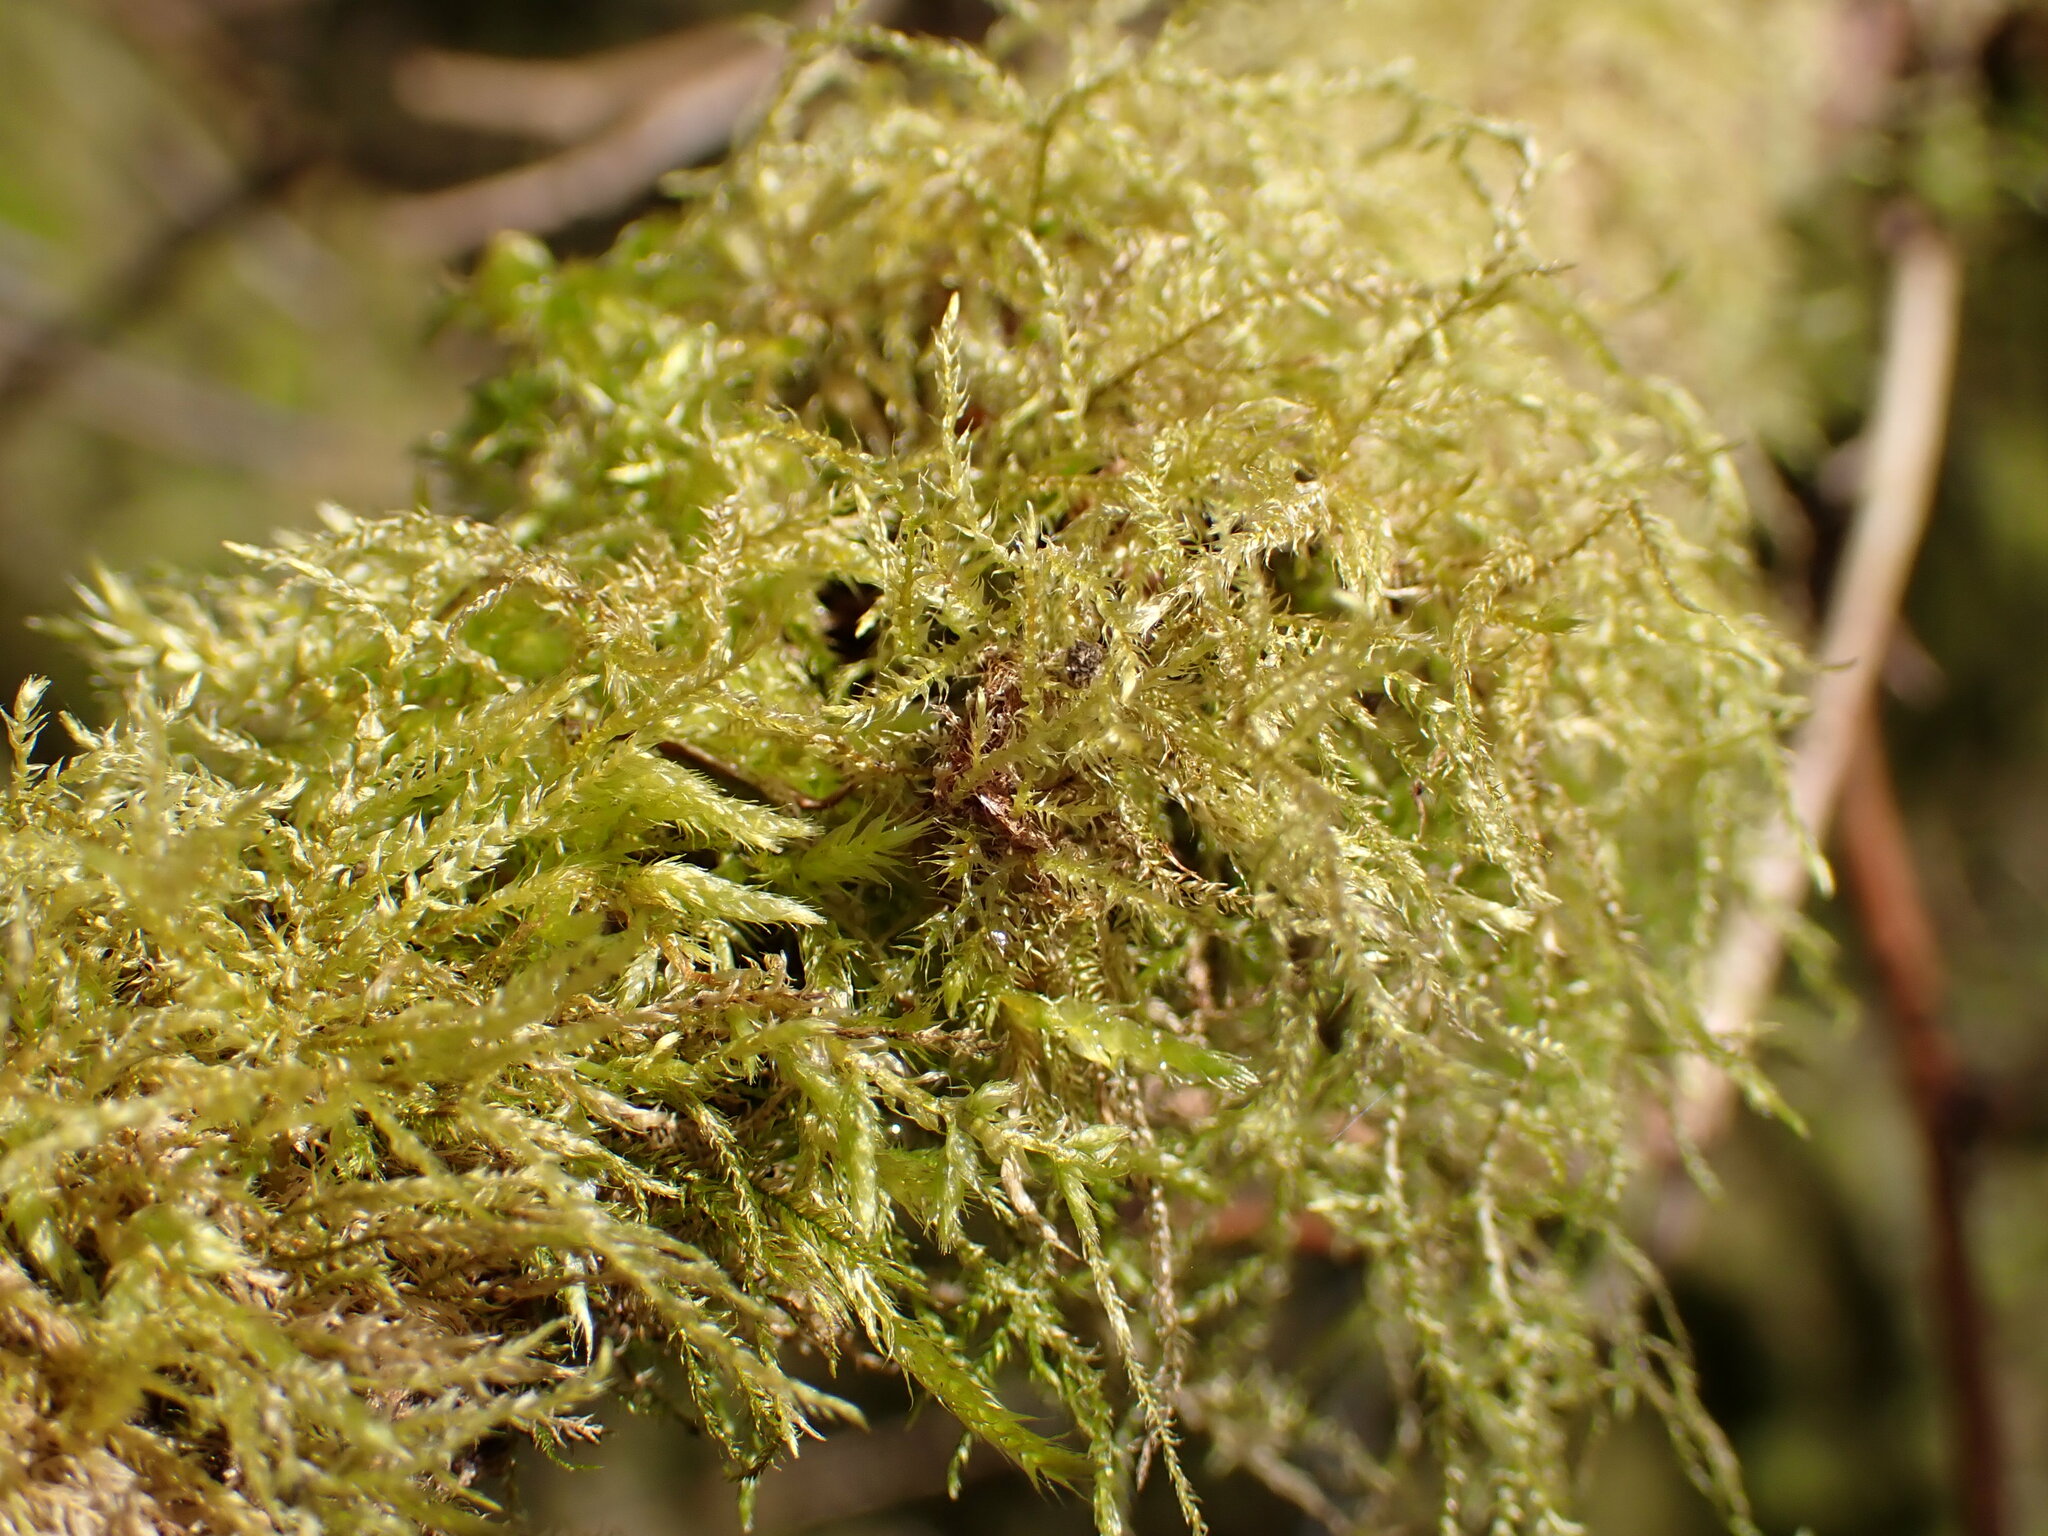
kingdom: Plantae
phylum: Bryophyta
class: Bryopsida
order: Hypnales
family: Brachytheciaceae
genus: Kindbergia
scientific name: Kindbergia praelonga
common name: Slender beaked moss
